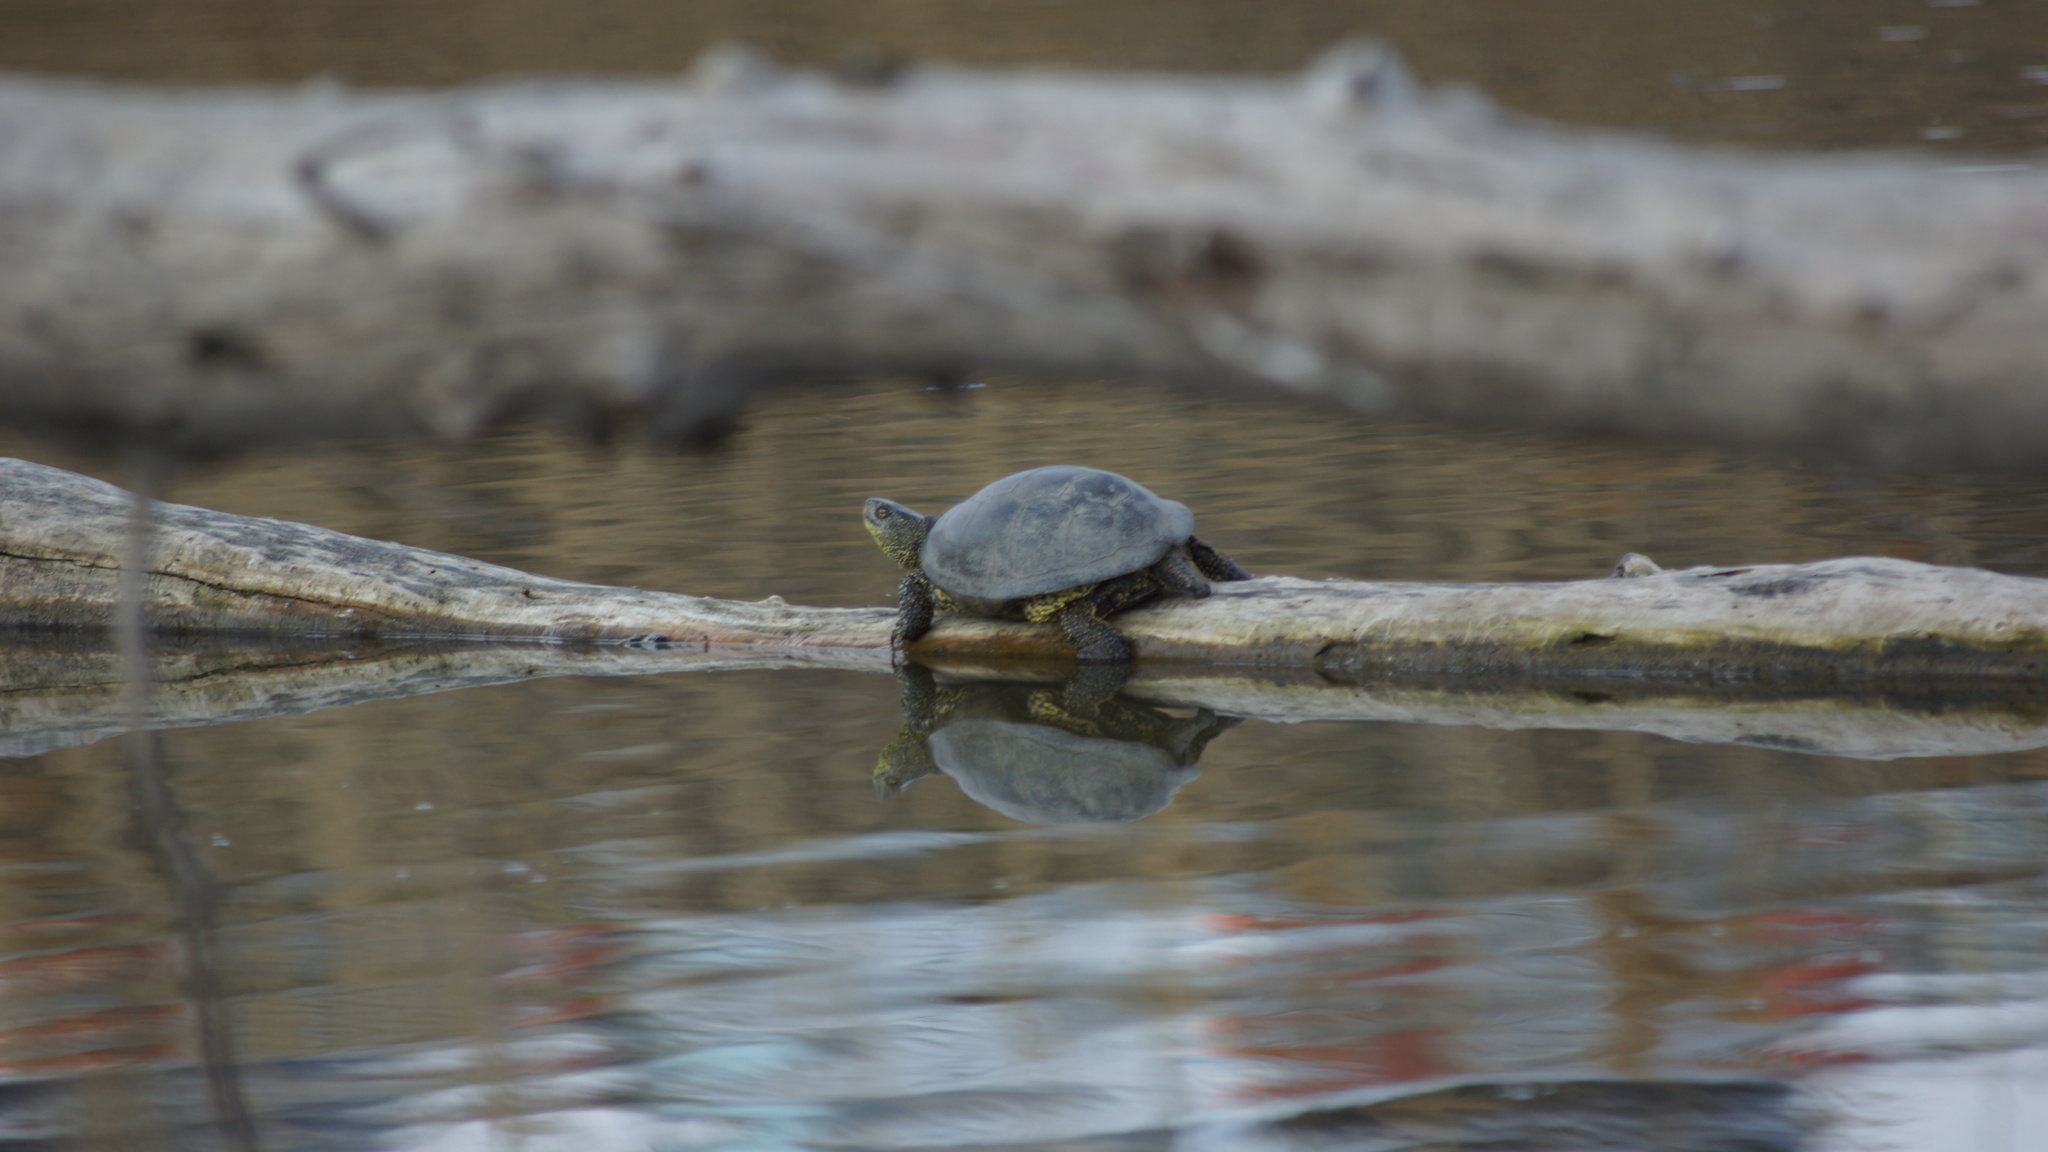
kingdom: Animalia
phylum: Chordata
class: Testudines
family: Emydidae
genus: Emys
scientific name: Emys orbicularis
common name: European pond turtle
